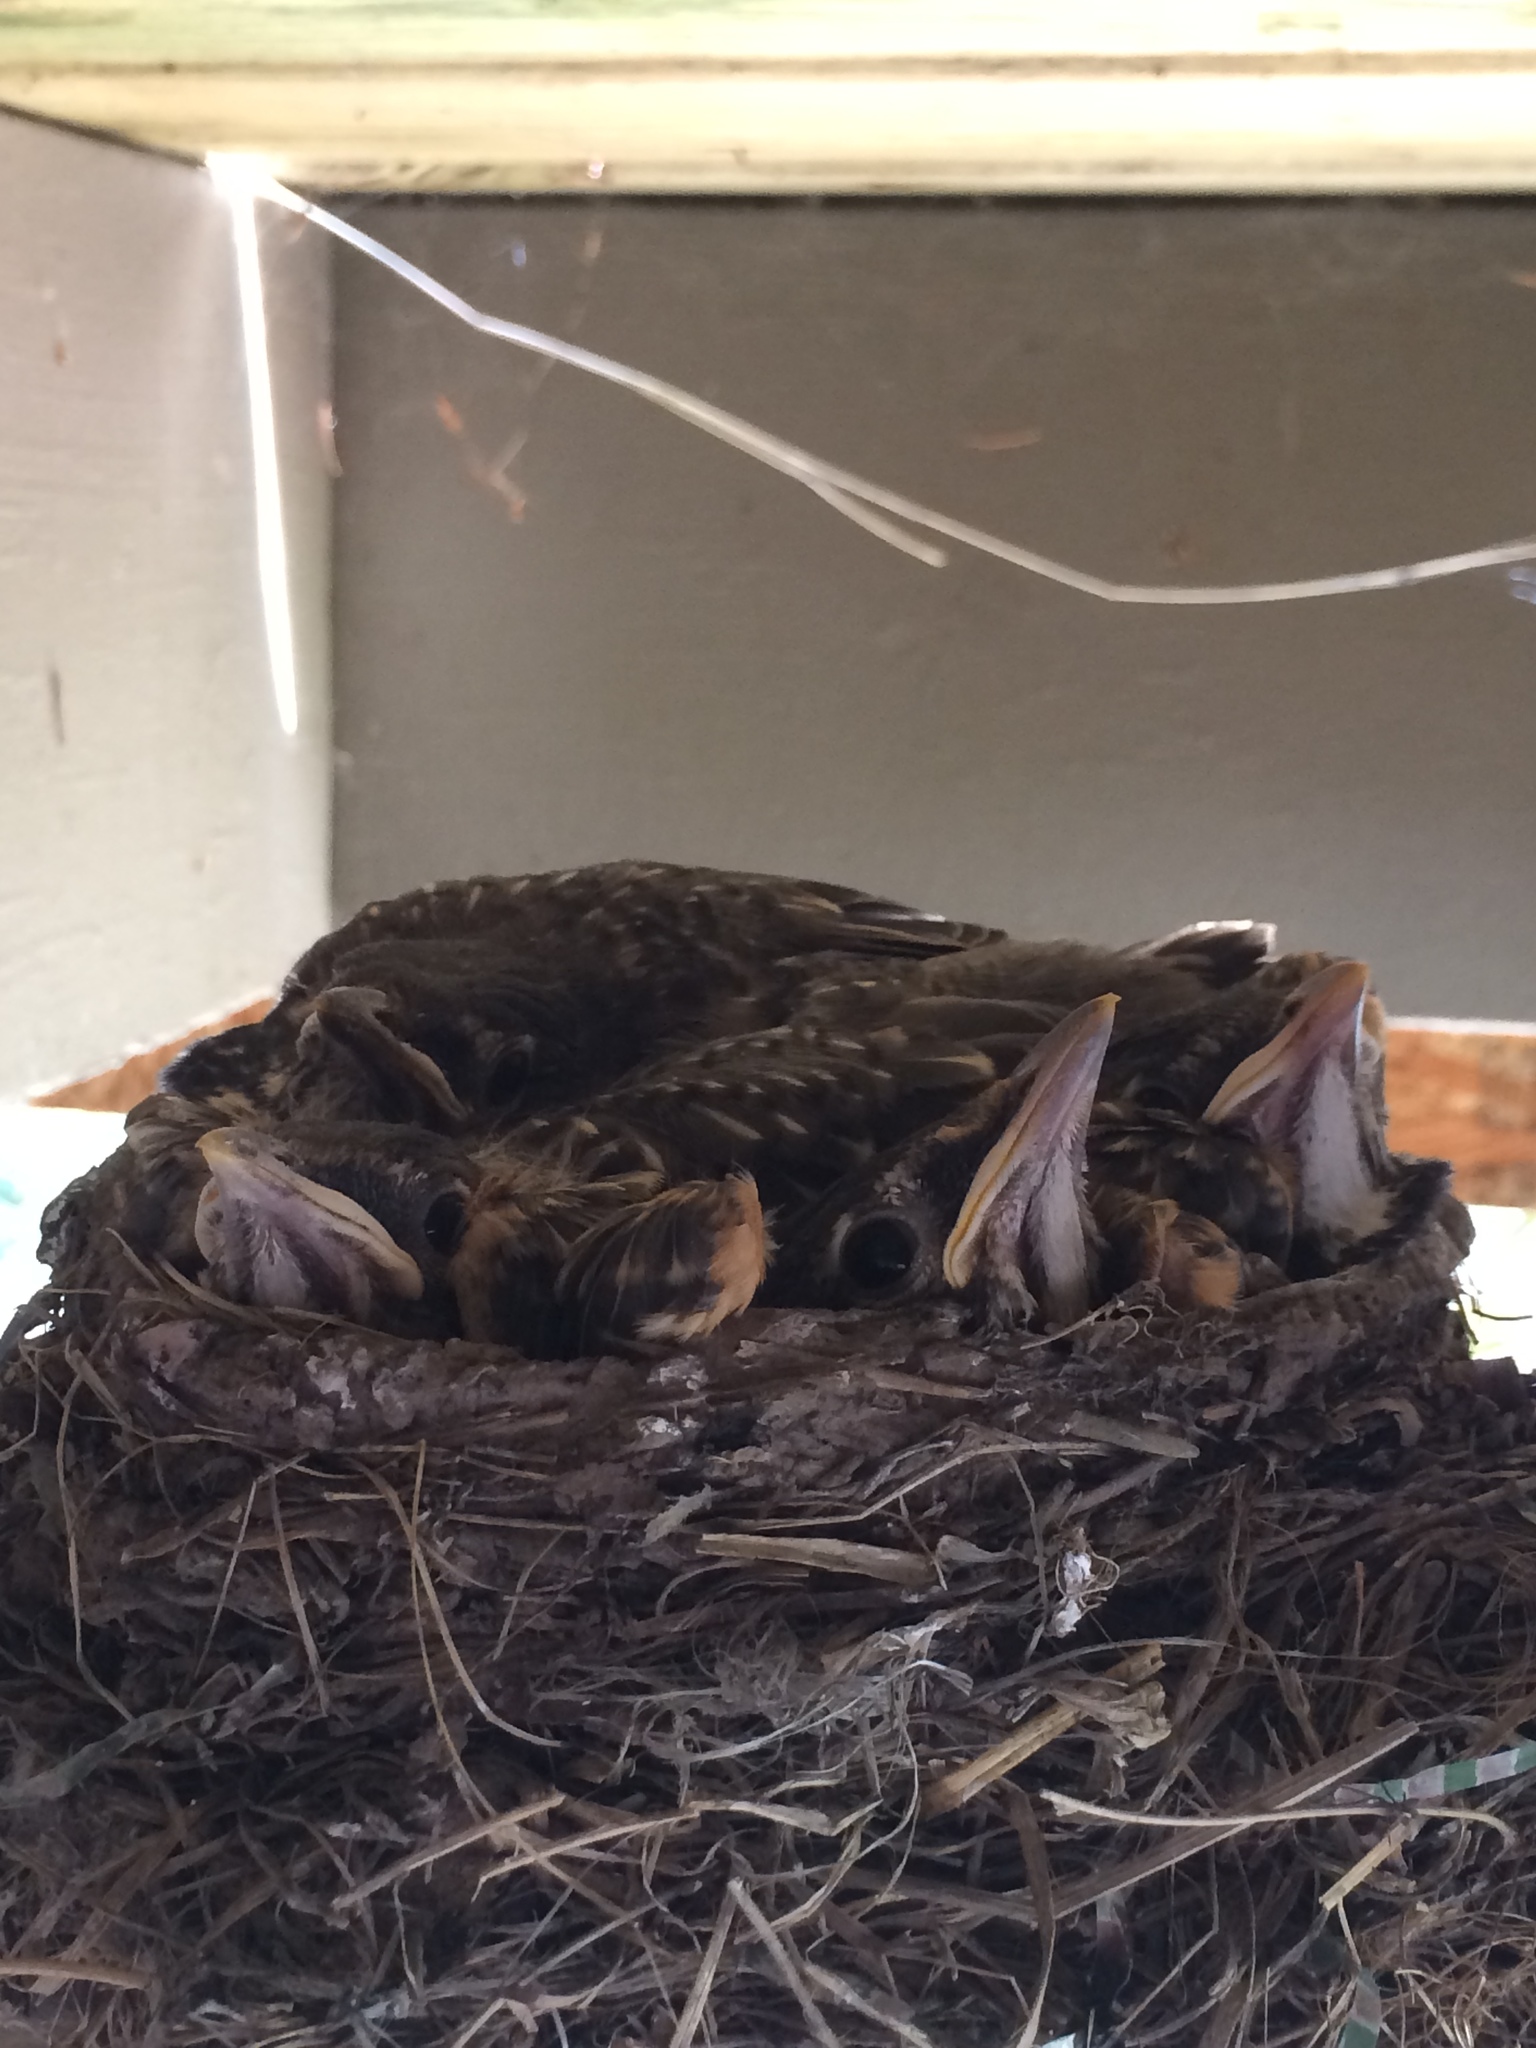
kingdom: Animalia
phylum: Chordata
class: Aves
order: Passeriformes
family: Turdidae
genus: Turdus
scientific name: Turdus migratorius
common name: American robin
